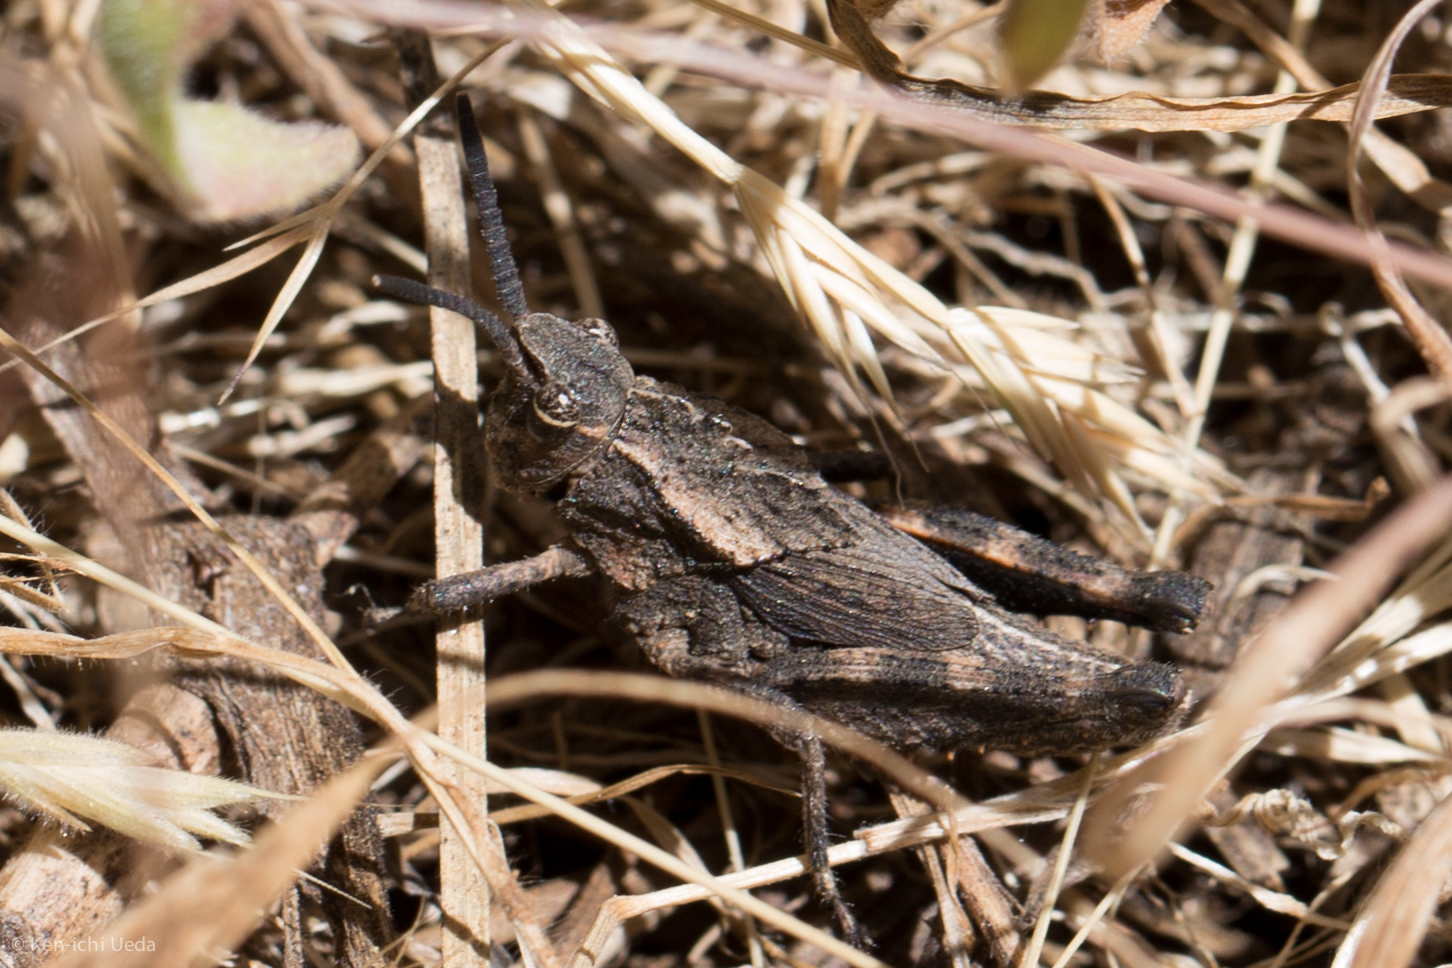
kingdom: Animalia
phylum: Arthropoda
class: Insecta
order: Orthoptera
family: Romaleidae
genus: Dracotettix
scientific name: Dracotettix monstrosus
